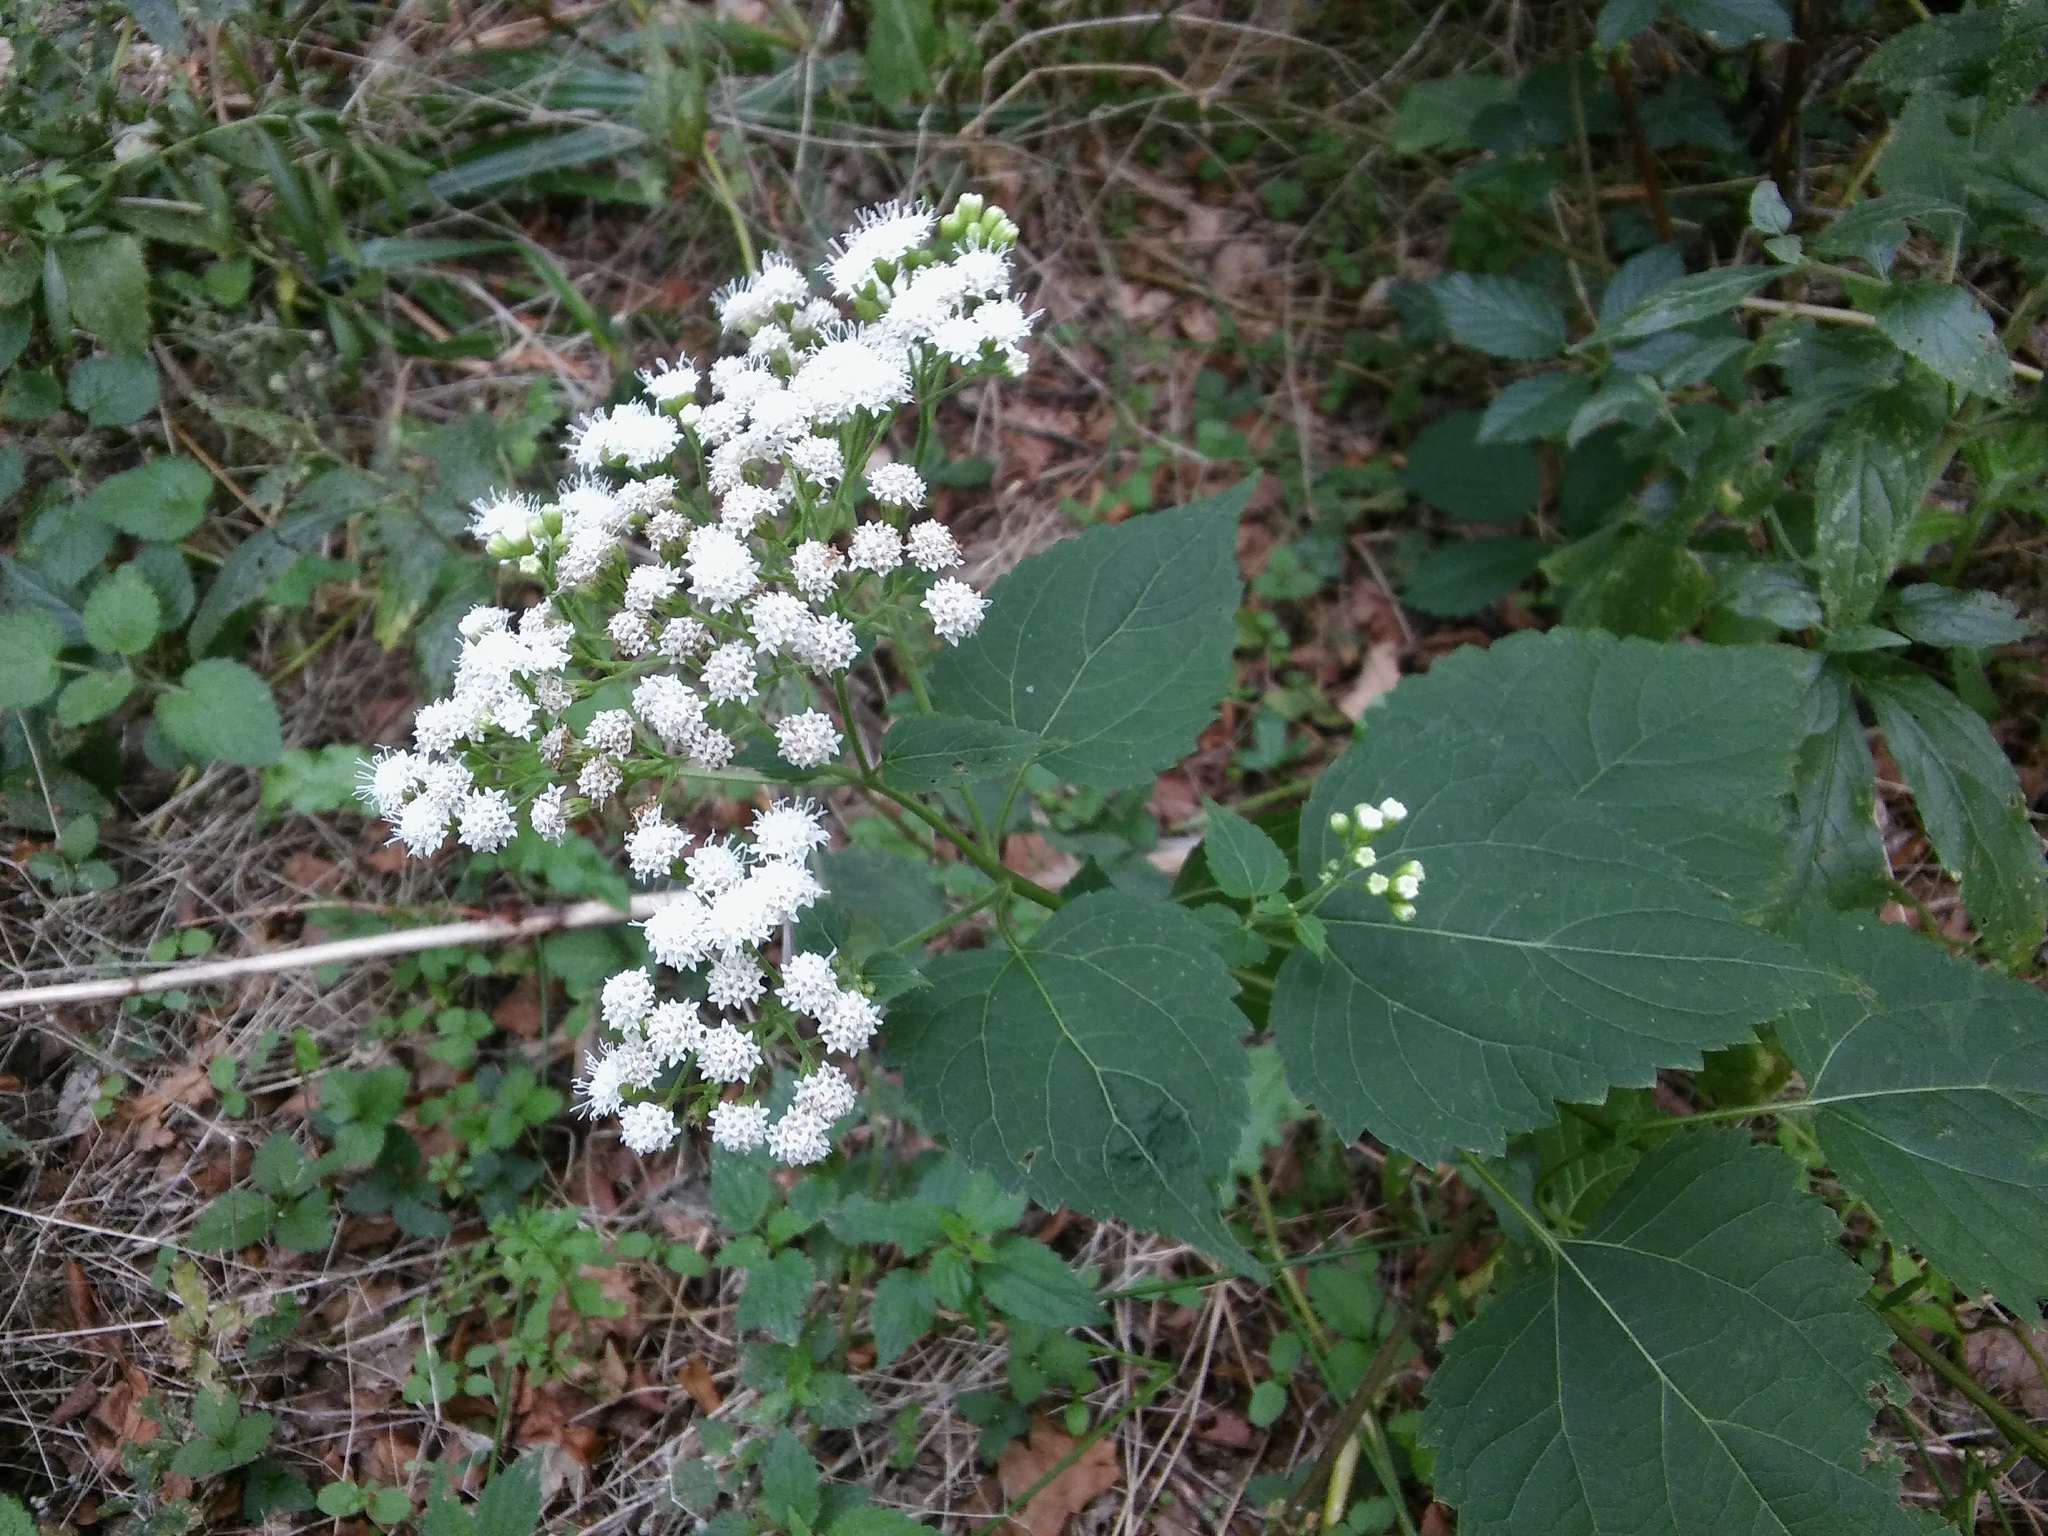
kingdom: Plantae
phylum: Tracheophyta
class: Magnoliopsida
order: Asterales
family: Asteraceae
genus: Ageratina
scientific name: Ageratina altissima
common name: White snakeroot
